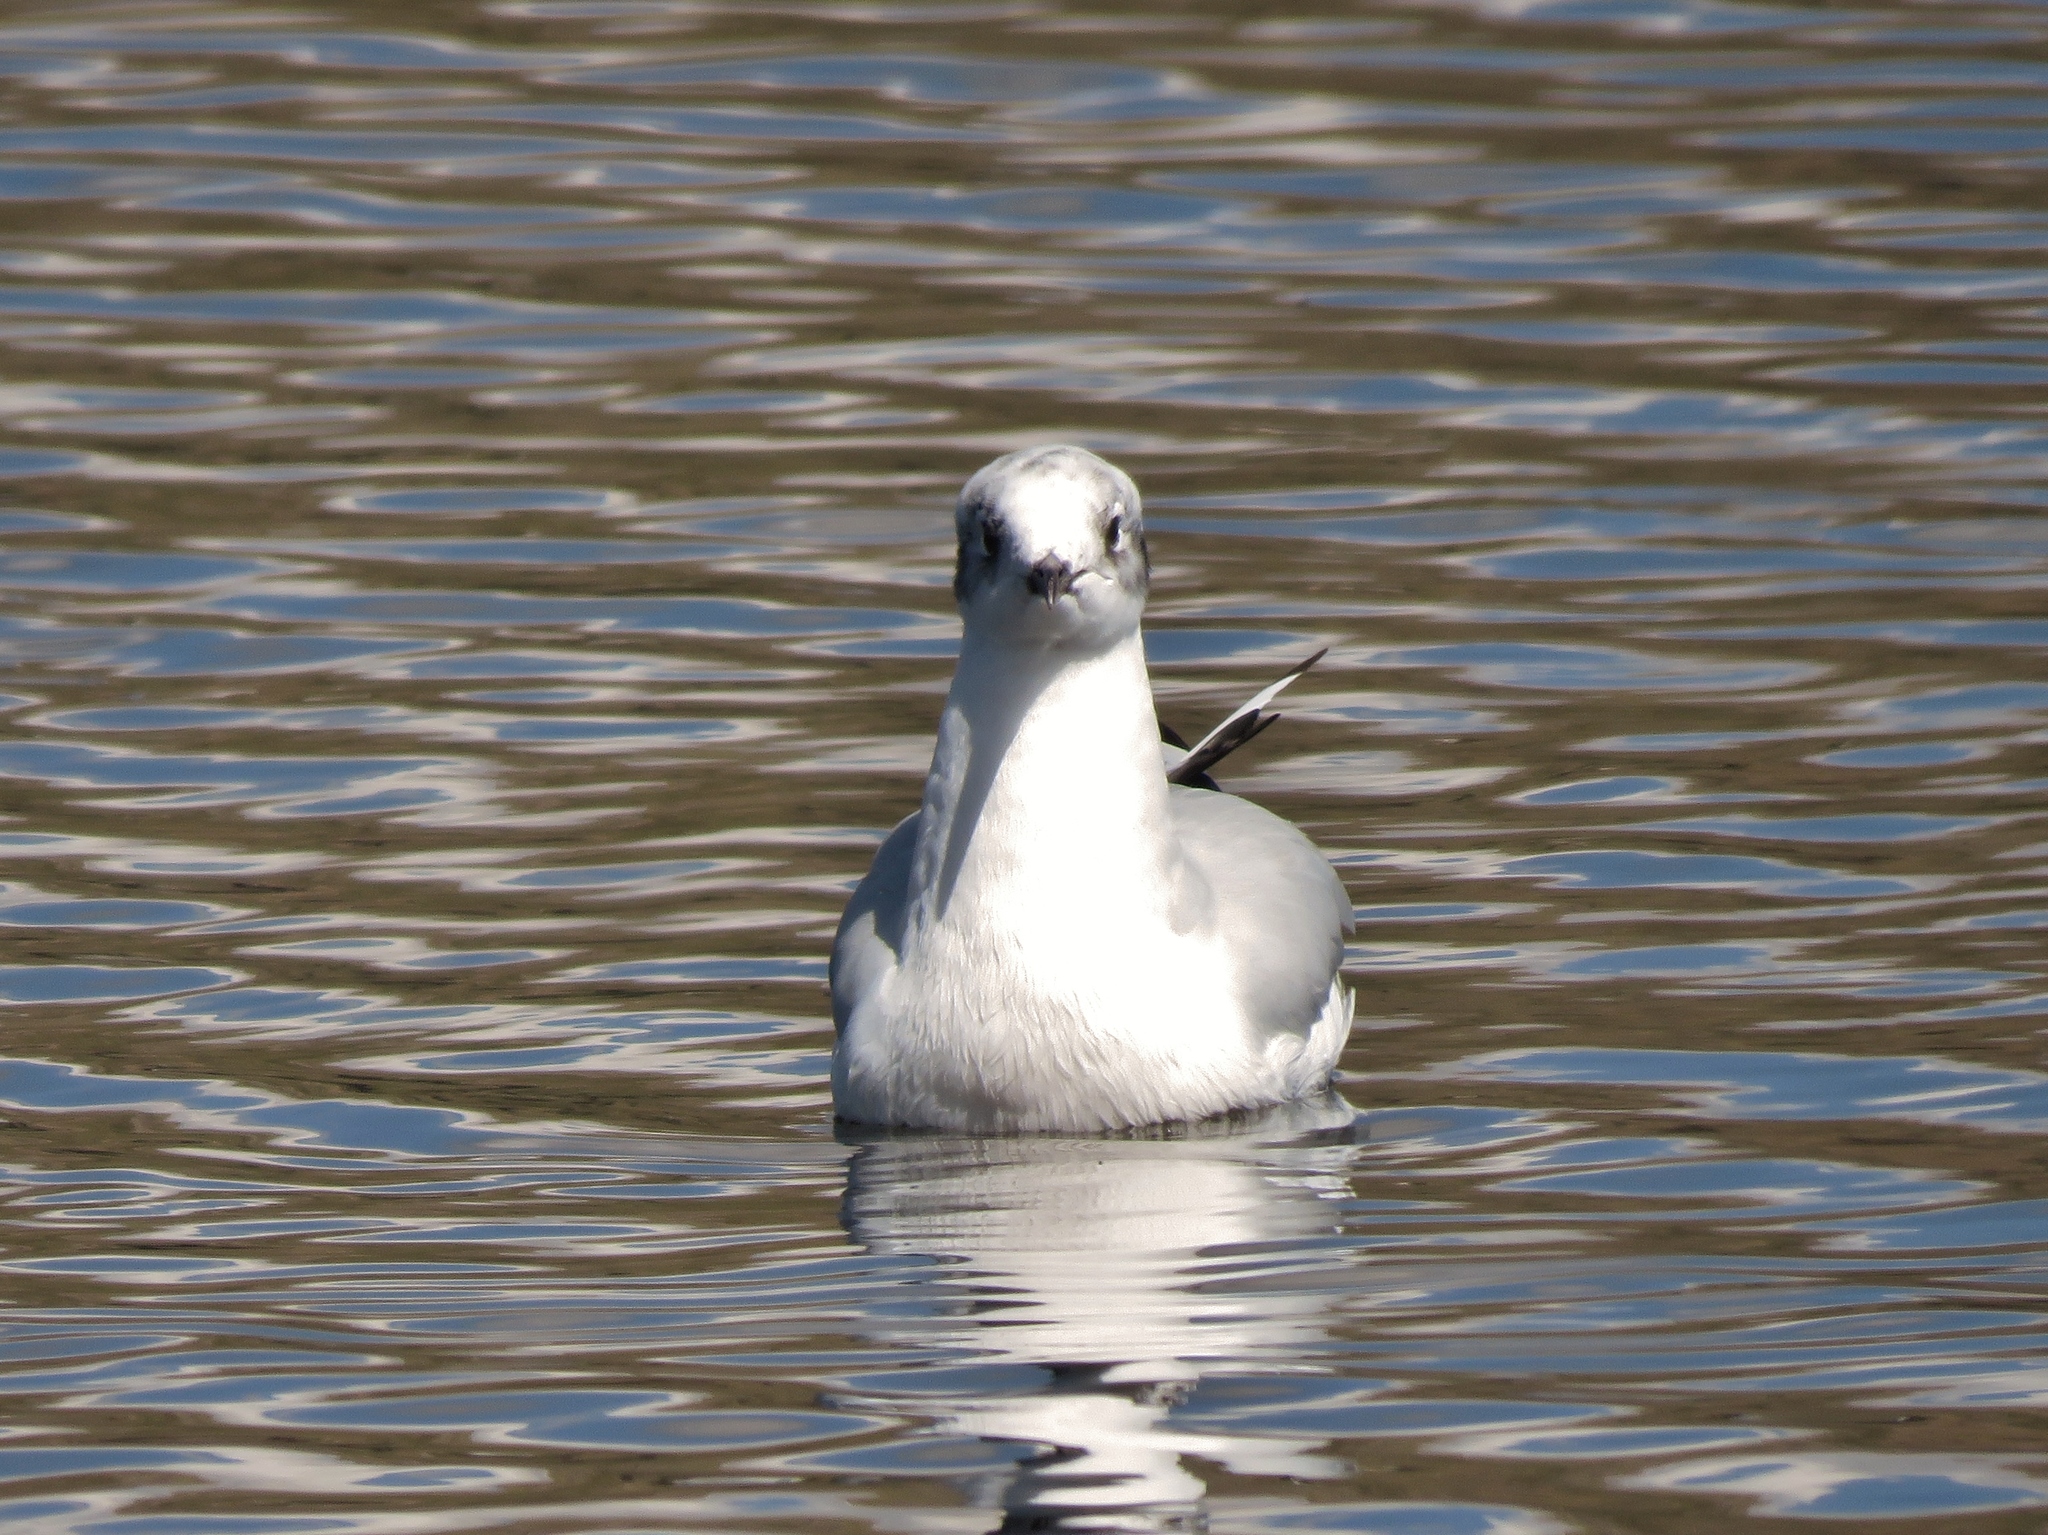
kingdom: Animalia
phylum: Chordata
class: Aves
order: Charadriiformes
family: Laridae
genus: Chroicocephalus
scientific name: Chroicocephalus serranus
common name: Andean gull
